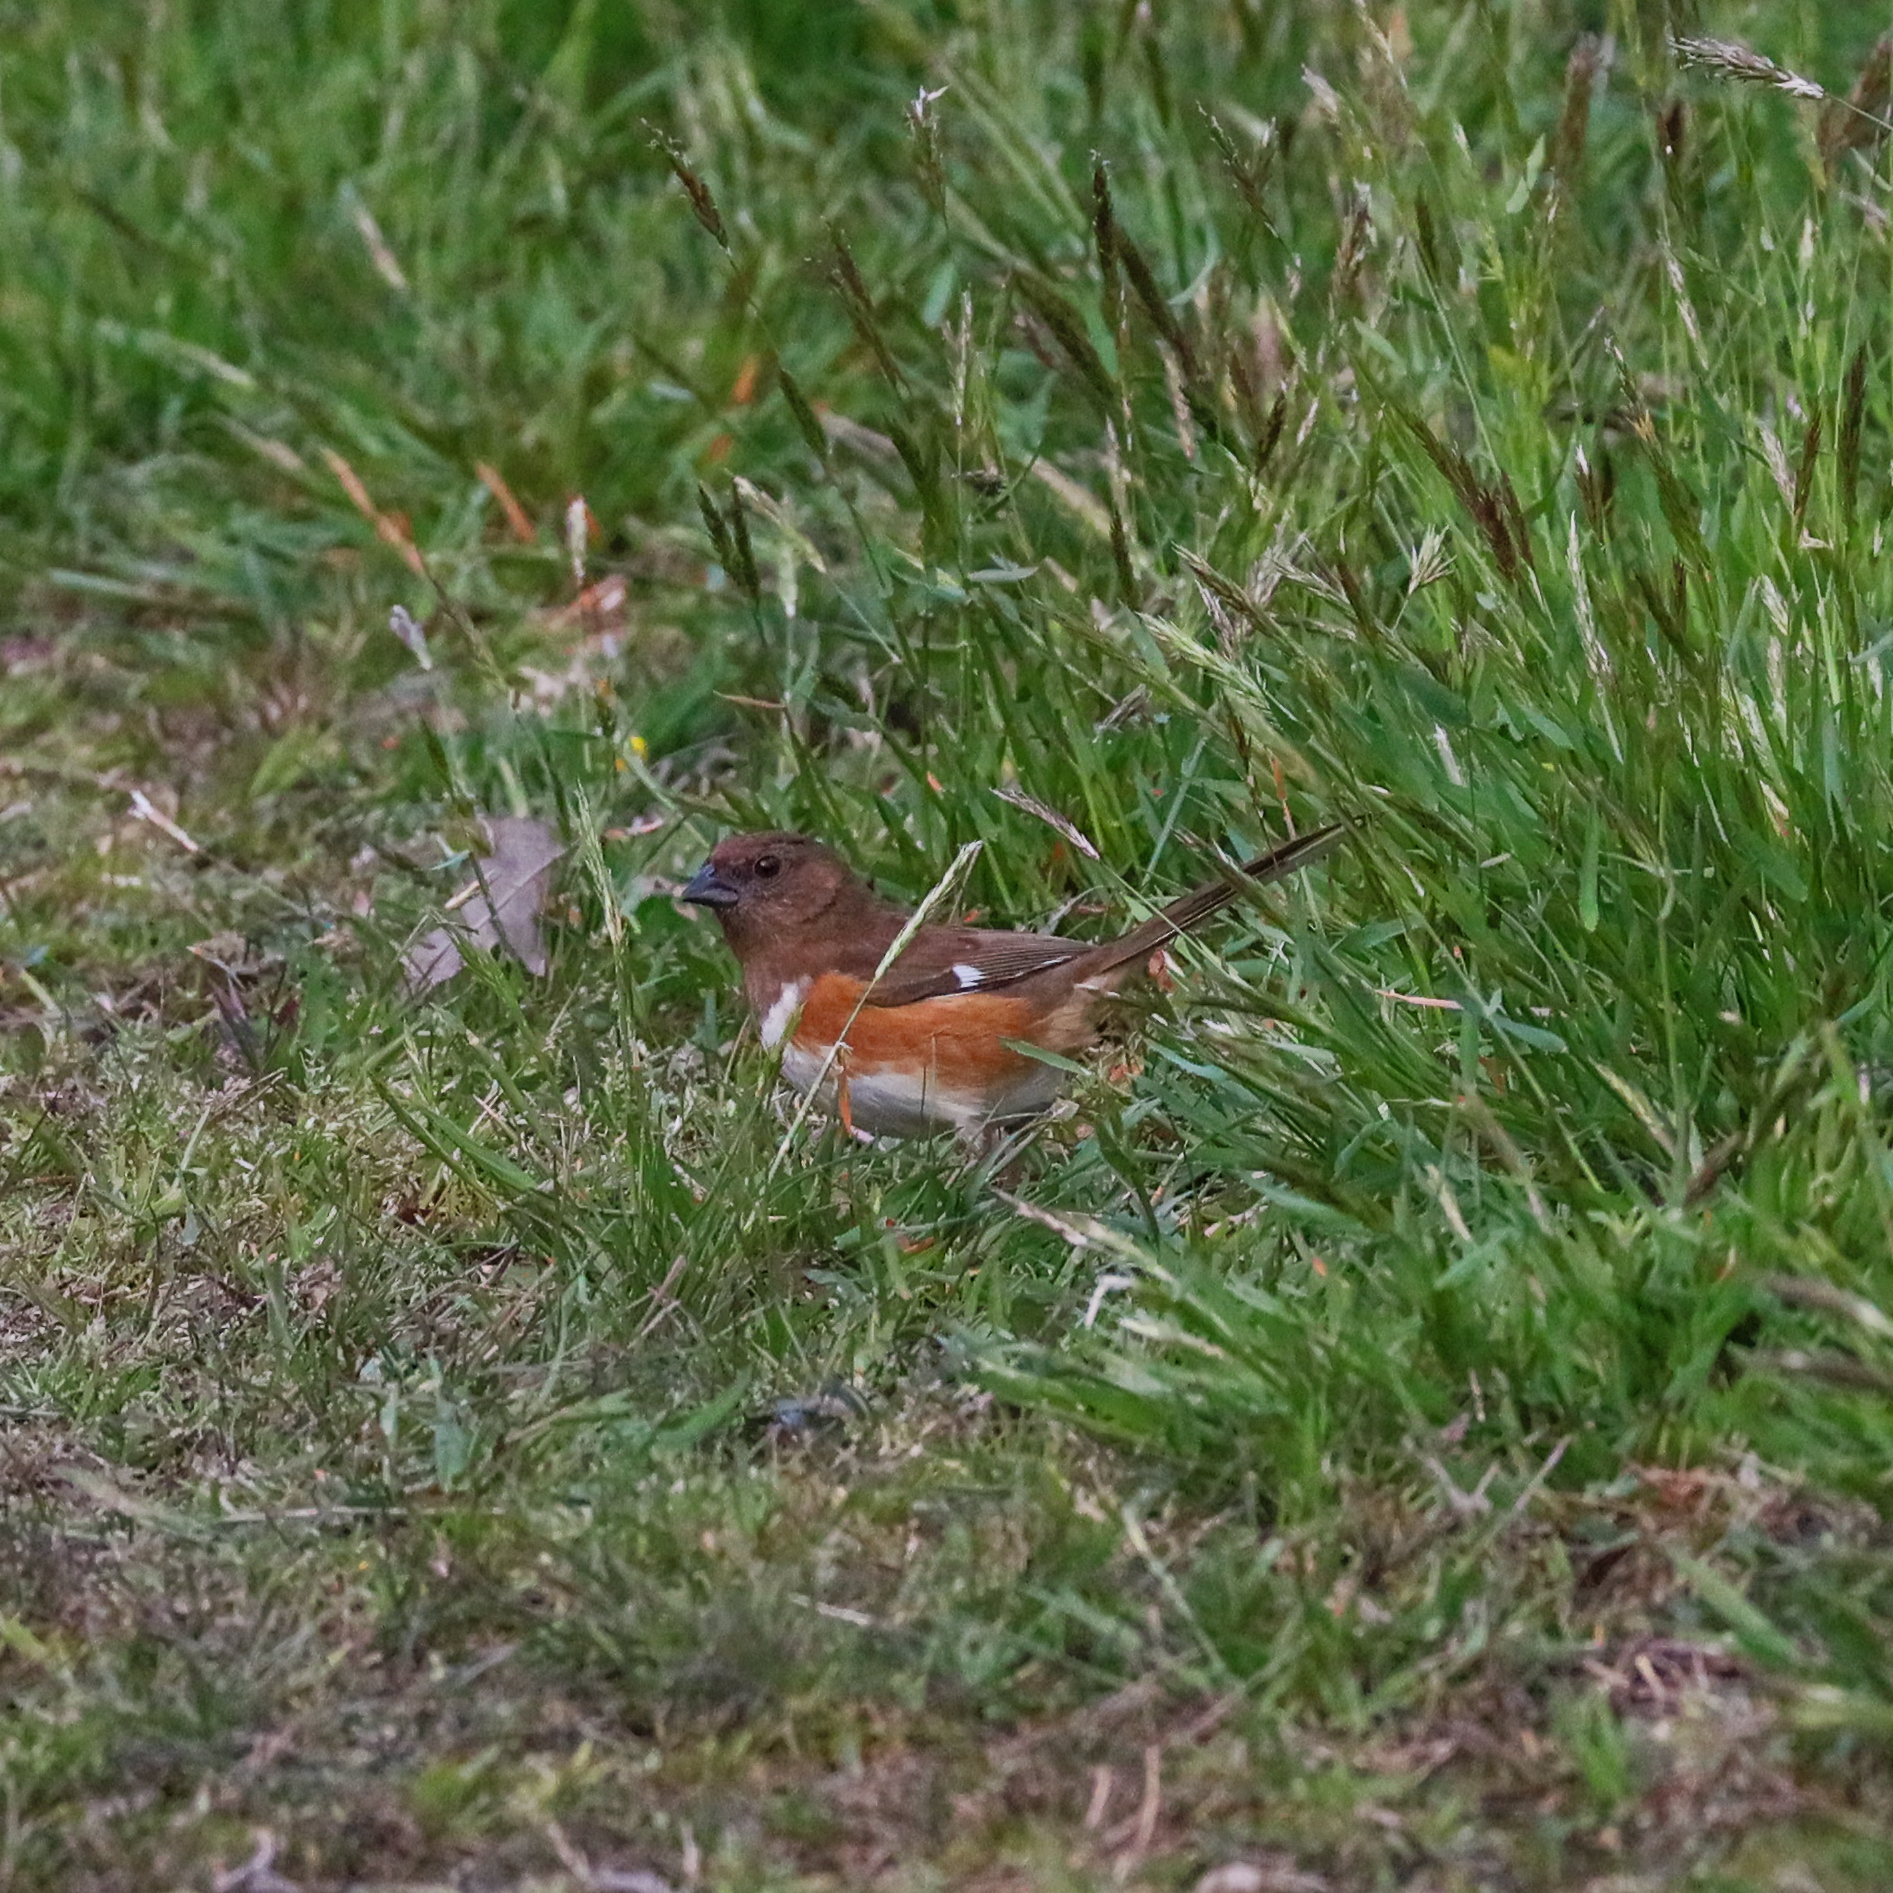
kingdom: Animalia
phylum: Chordata
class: Aves
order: Passeriformes
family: Passerellidae
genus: Pipilo
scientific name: Pipilo erythrophthalmus
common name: Eastern towhee
